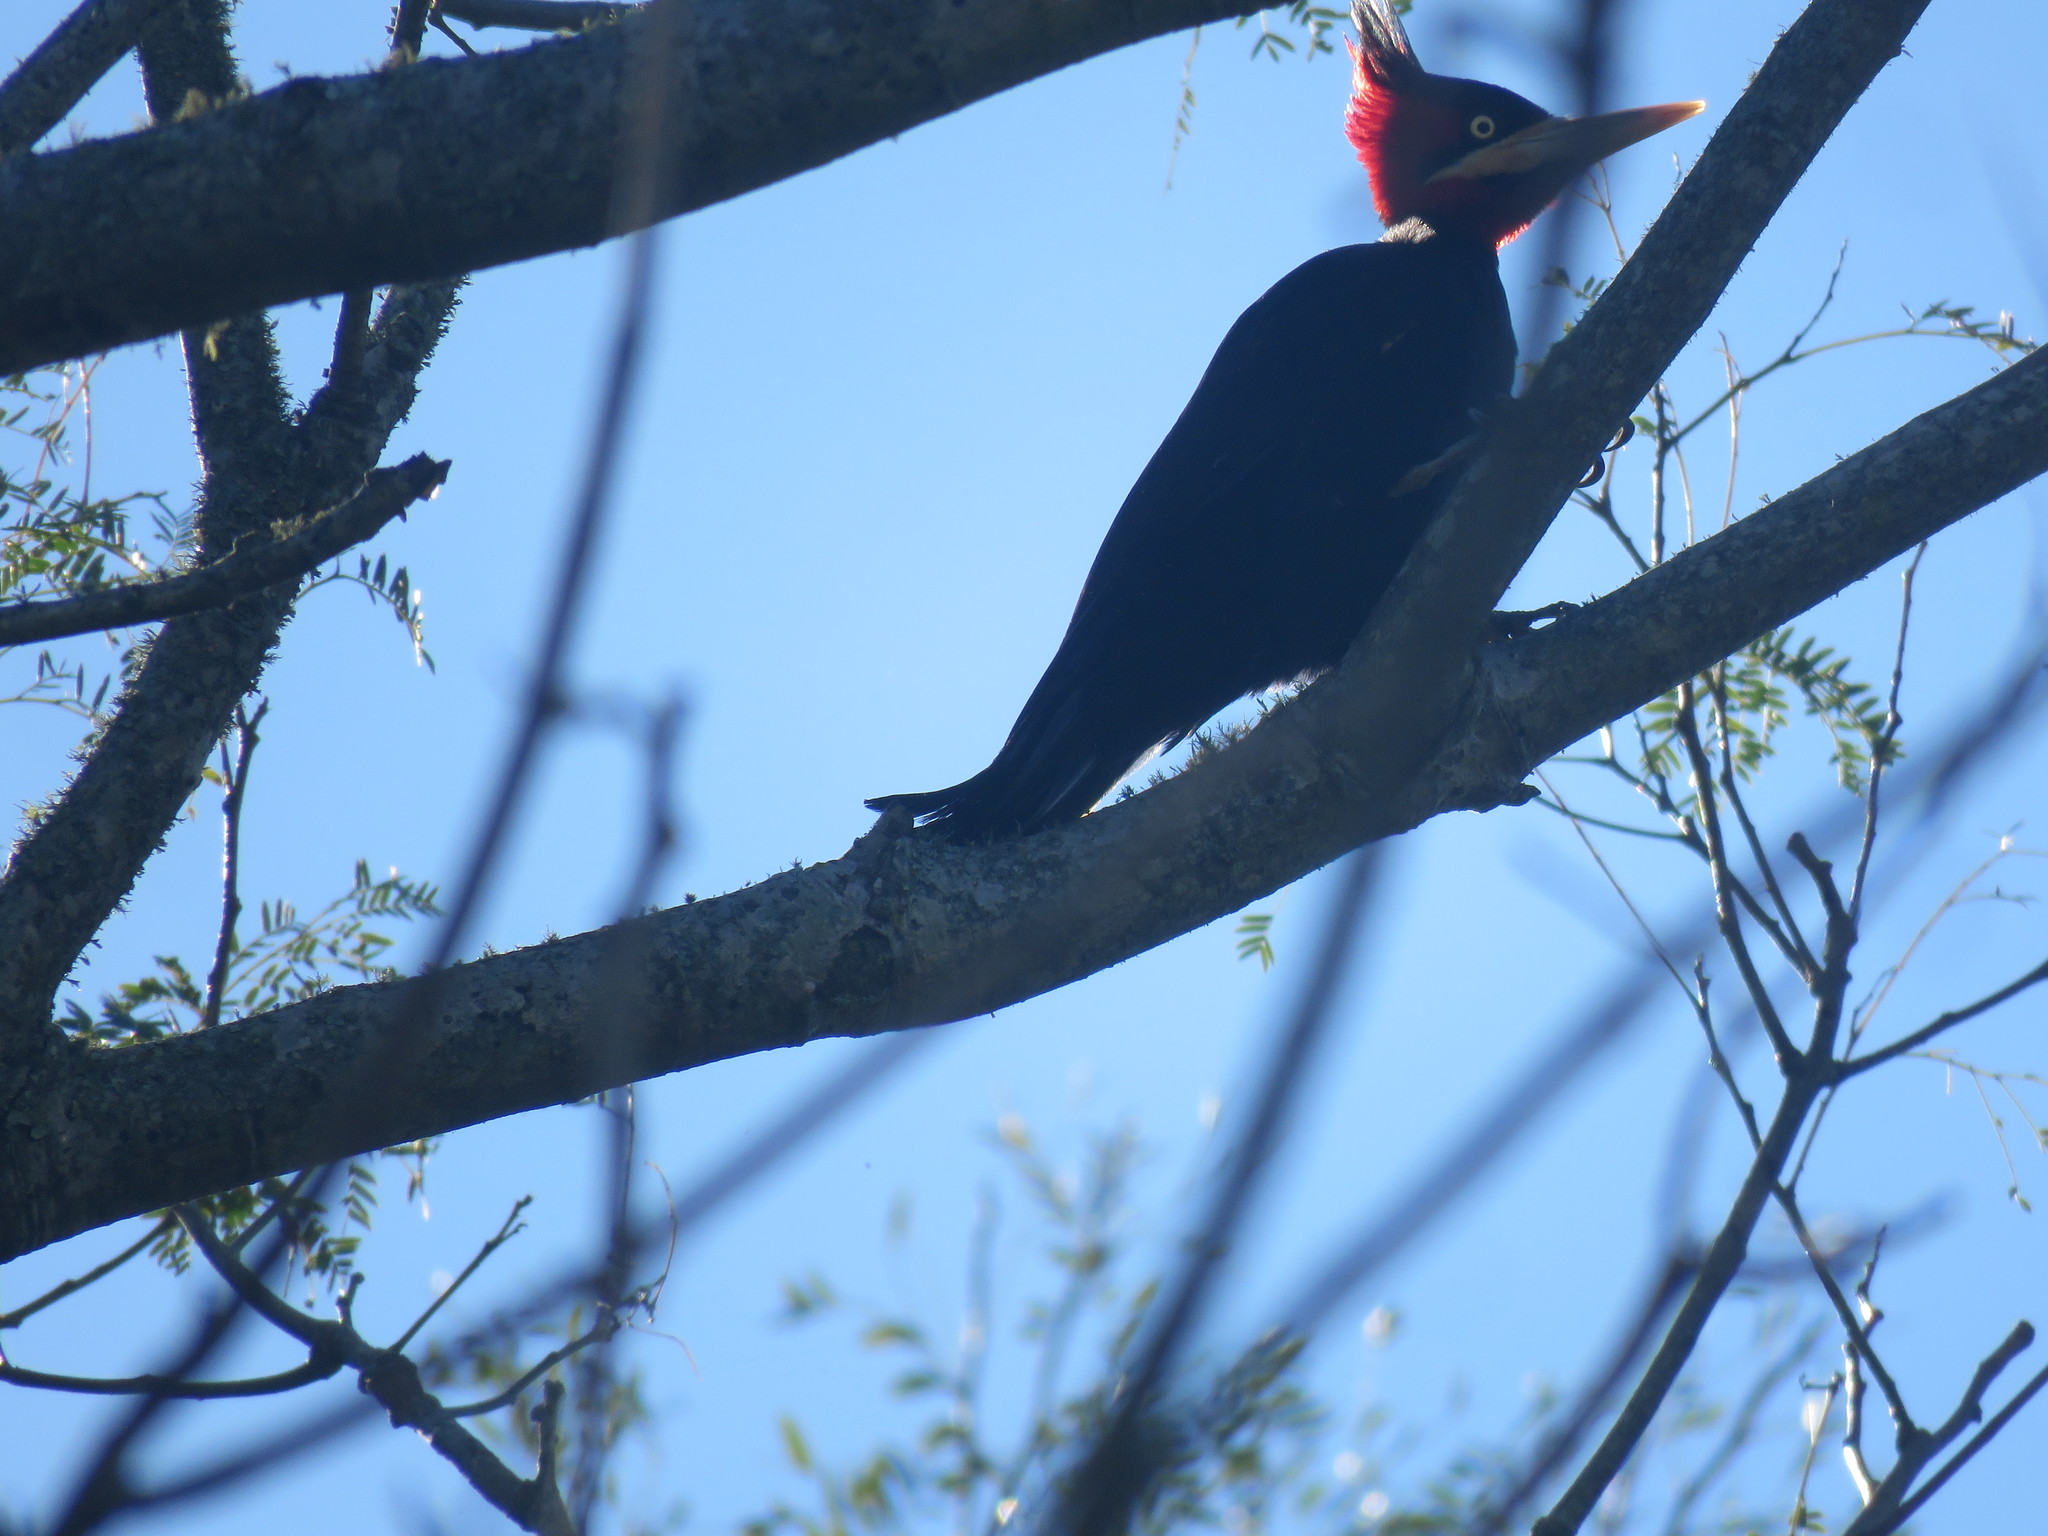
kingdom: Animalia
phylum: Chordata
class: Aves
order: Piciformes
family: Picidae
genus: Campephilus
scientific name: Campephilus leucopogon
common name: Cream-backed woodpecker
